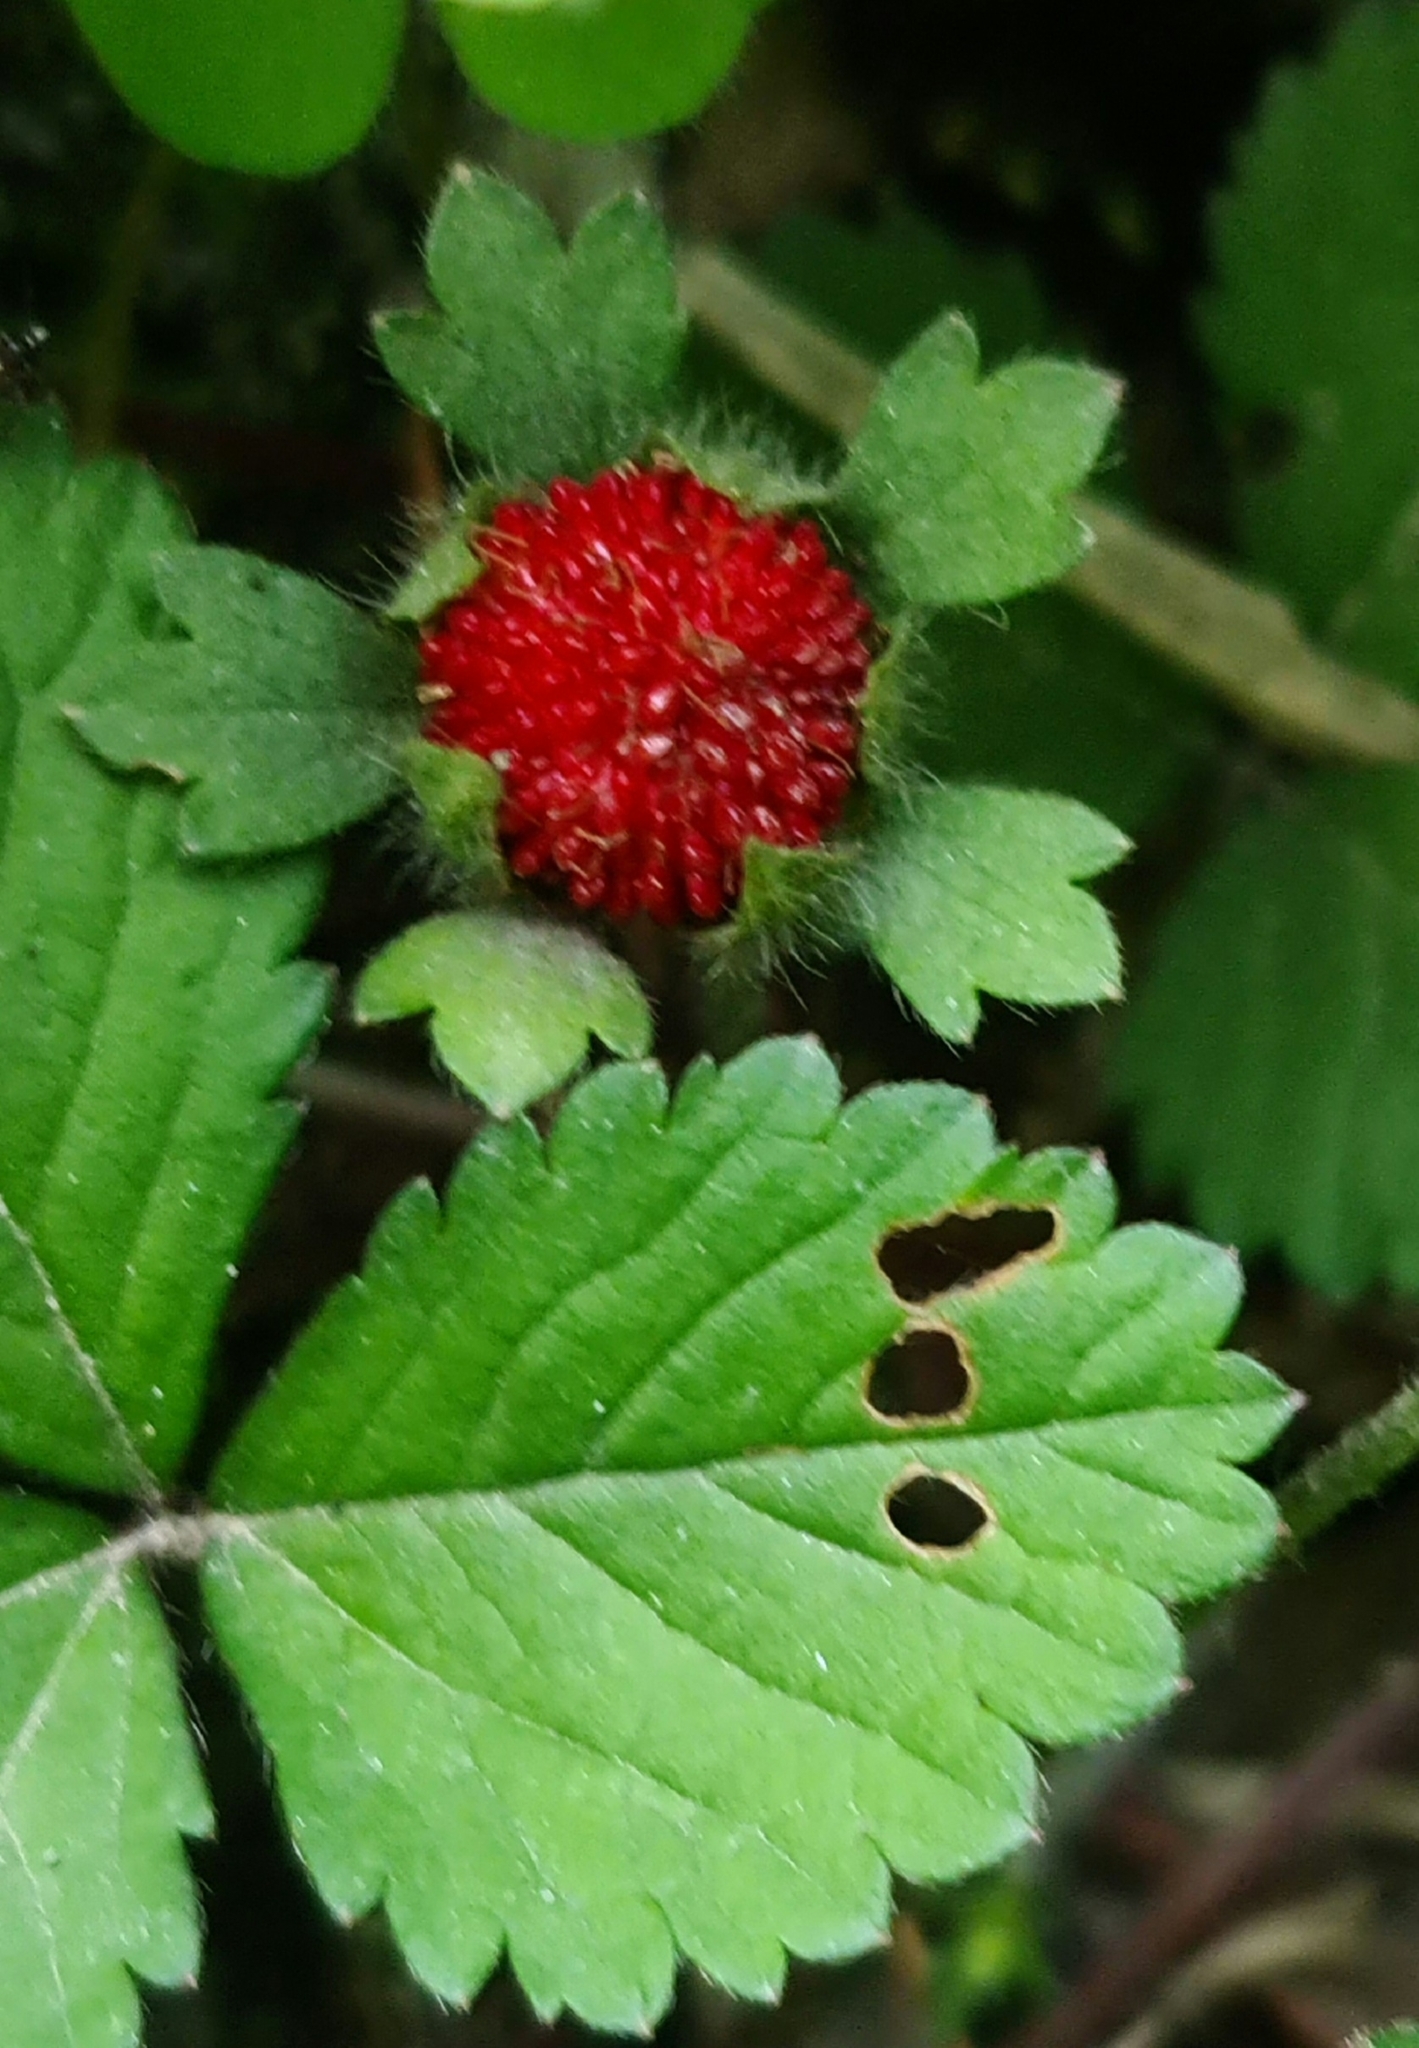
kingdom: Plantae
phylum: Tracheophyta
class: Magnoliopsida
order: Rosales
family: Rosaceae
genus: Potentilla
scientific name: Potentilla indica
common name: Yellow-flowered strawberry
